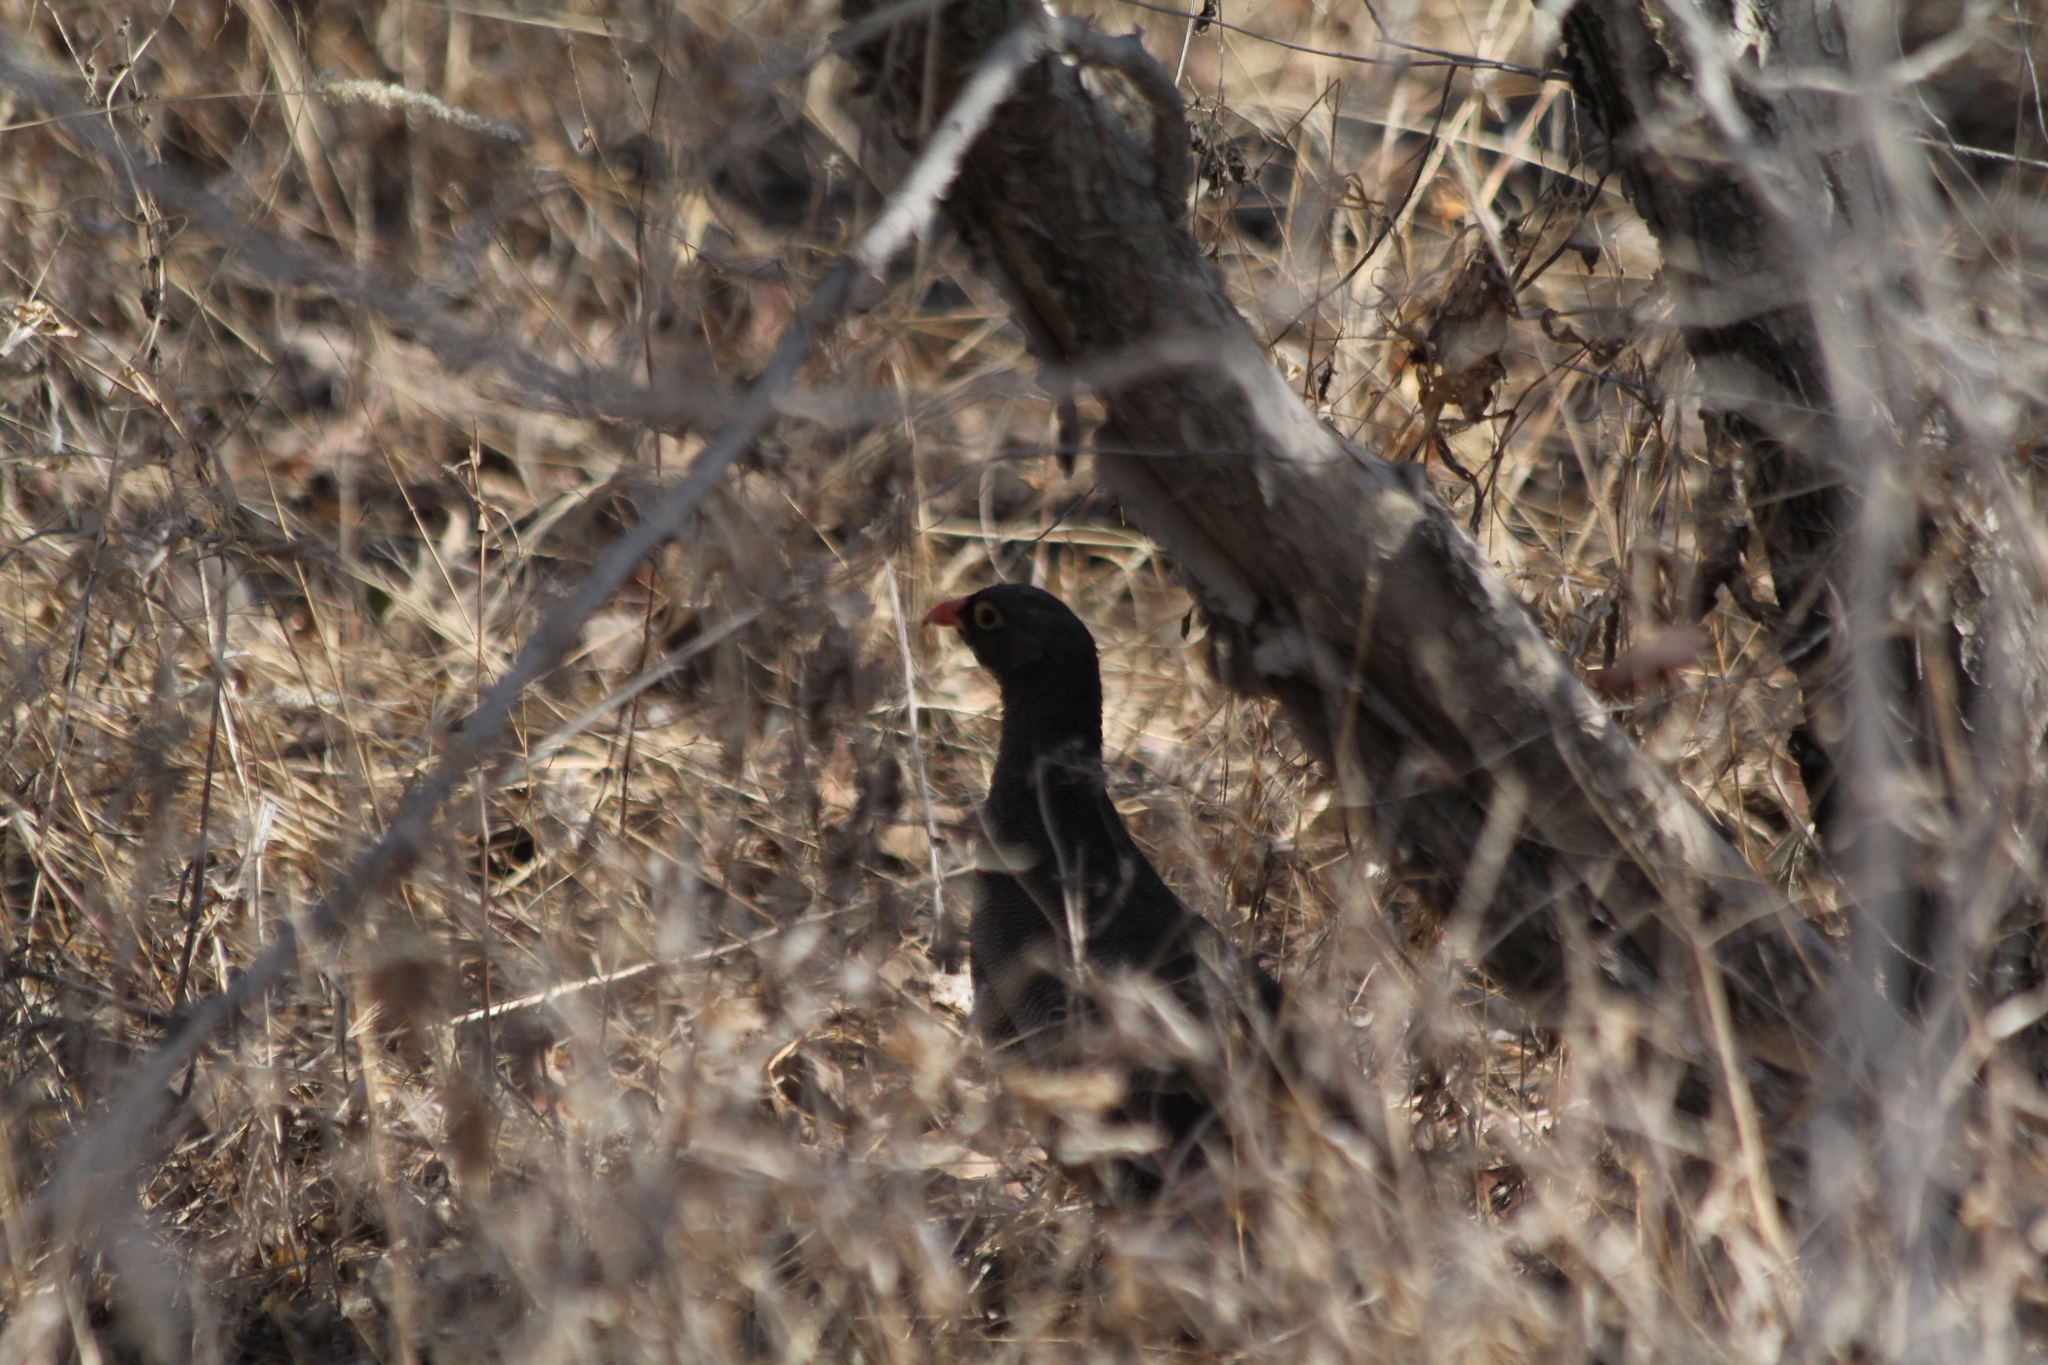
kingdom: Animalia
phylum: Chordata
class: Aves
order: Galliformes
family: Phasianidae
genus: Pternistis
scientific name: Pternistis adspersus
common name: Red-billed spurfowl
